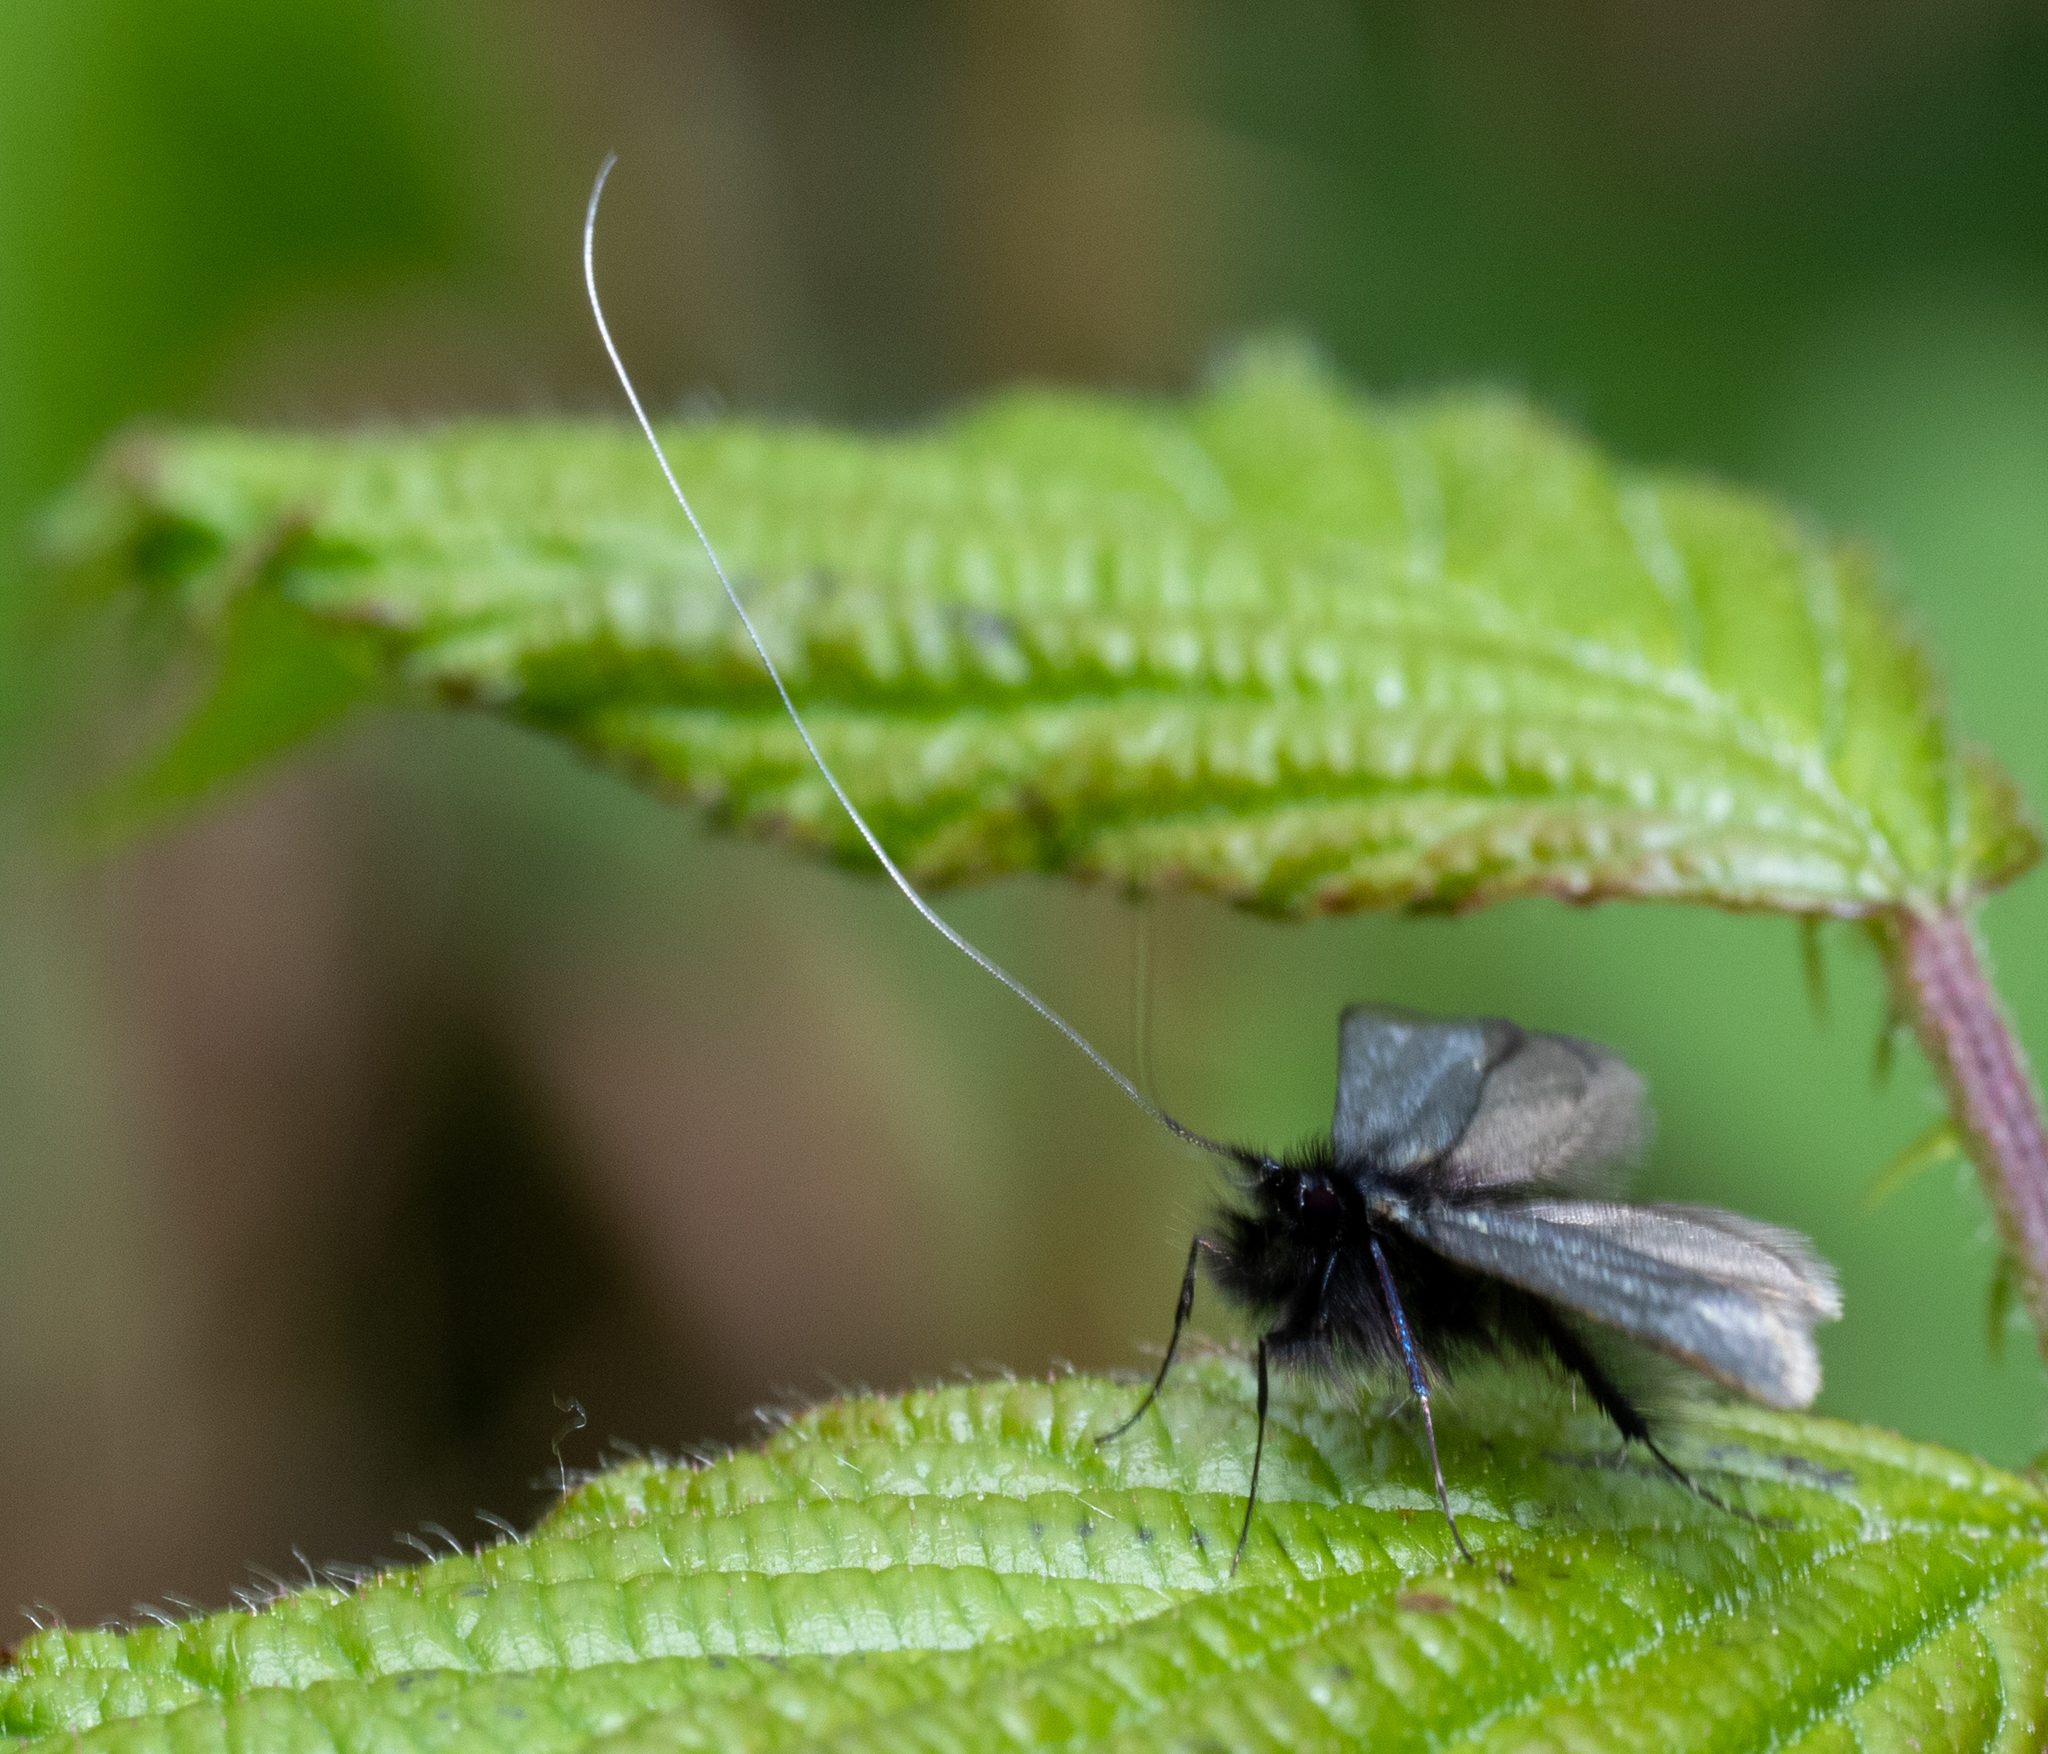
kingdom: Animalia
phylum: Arthropoda
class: Insecta
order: Lepidoptera
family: Adelidae
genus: Adela
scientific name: Adela viridella
